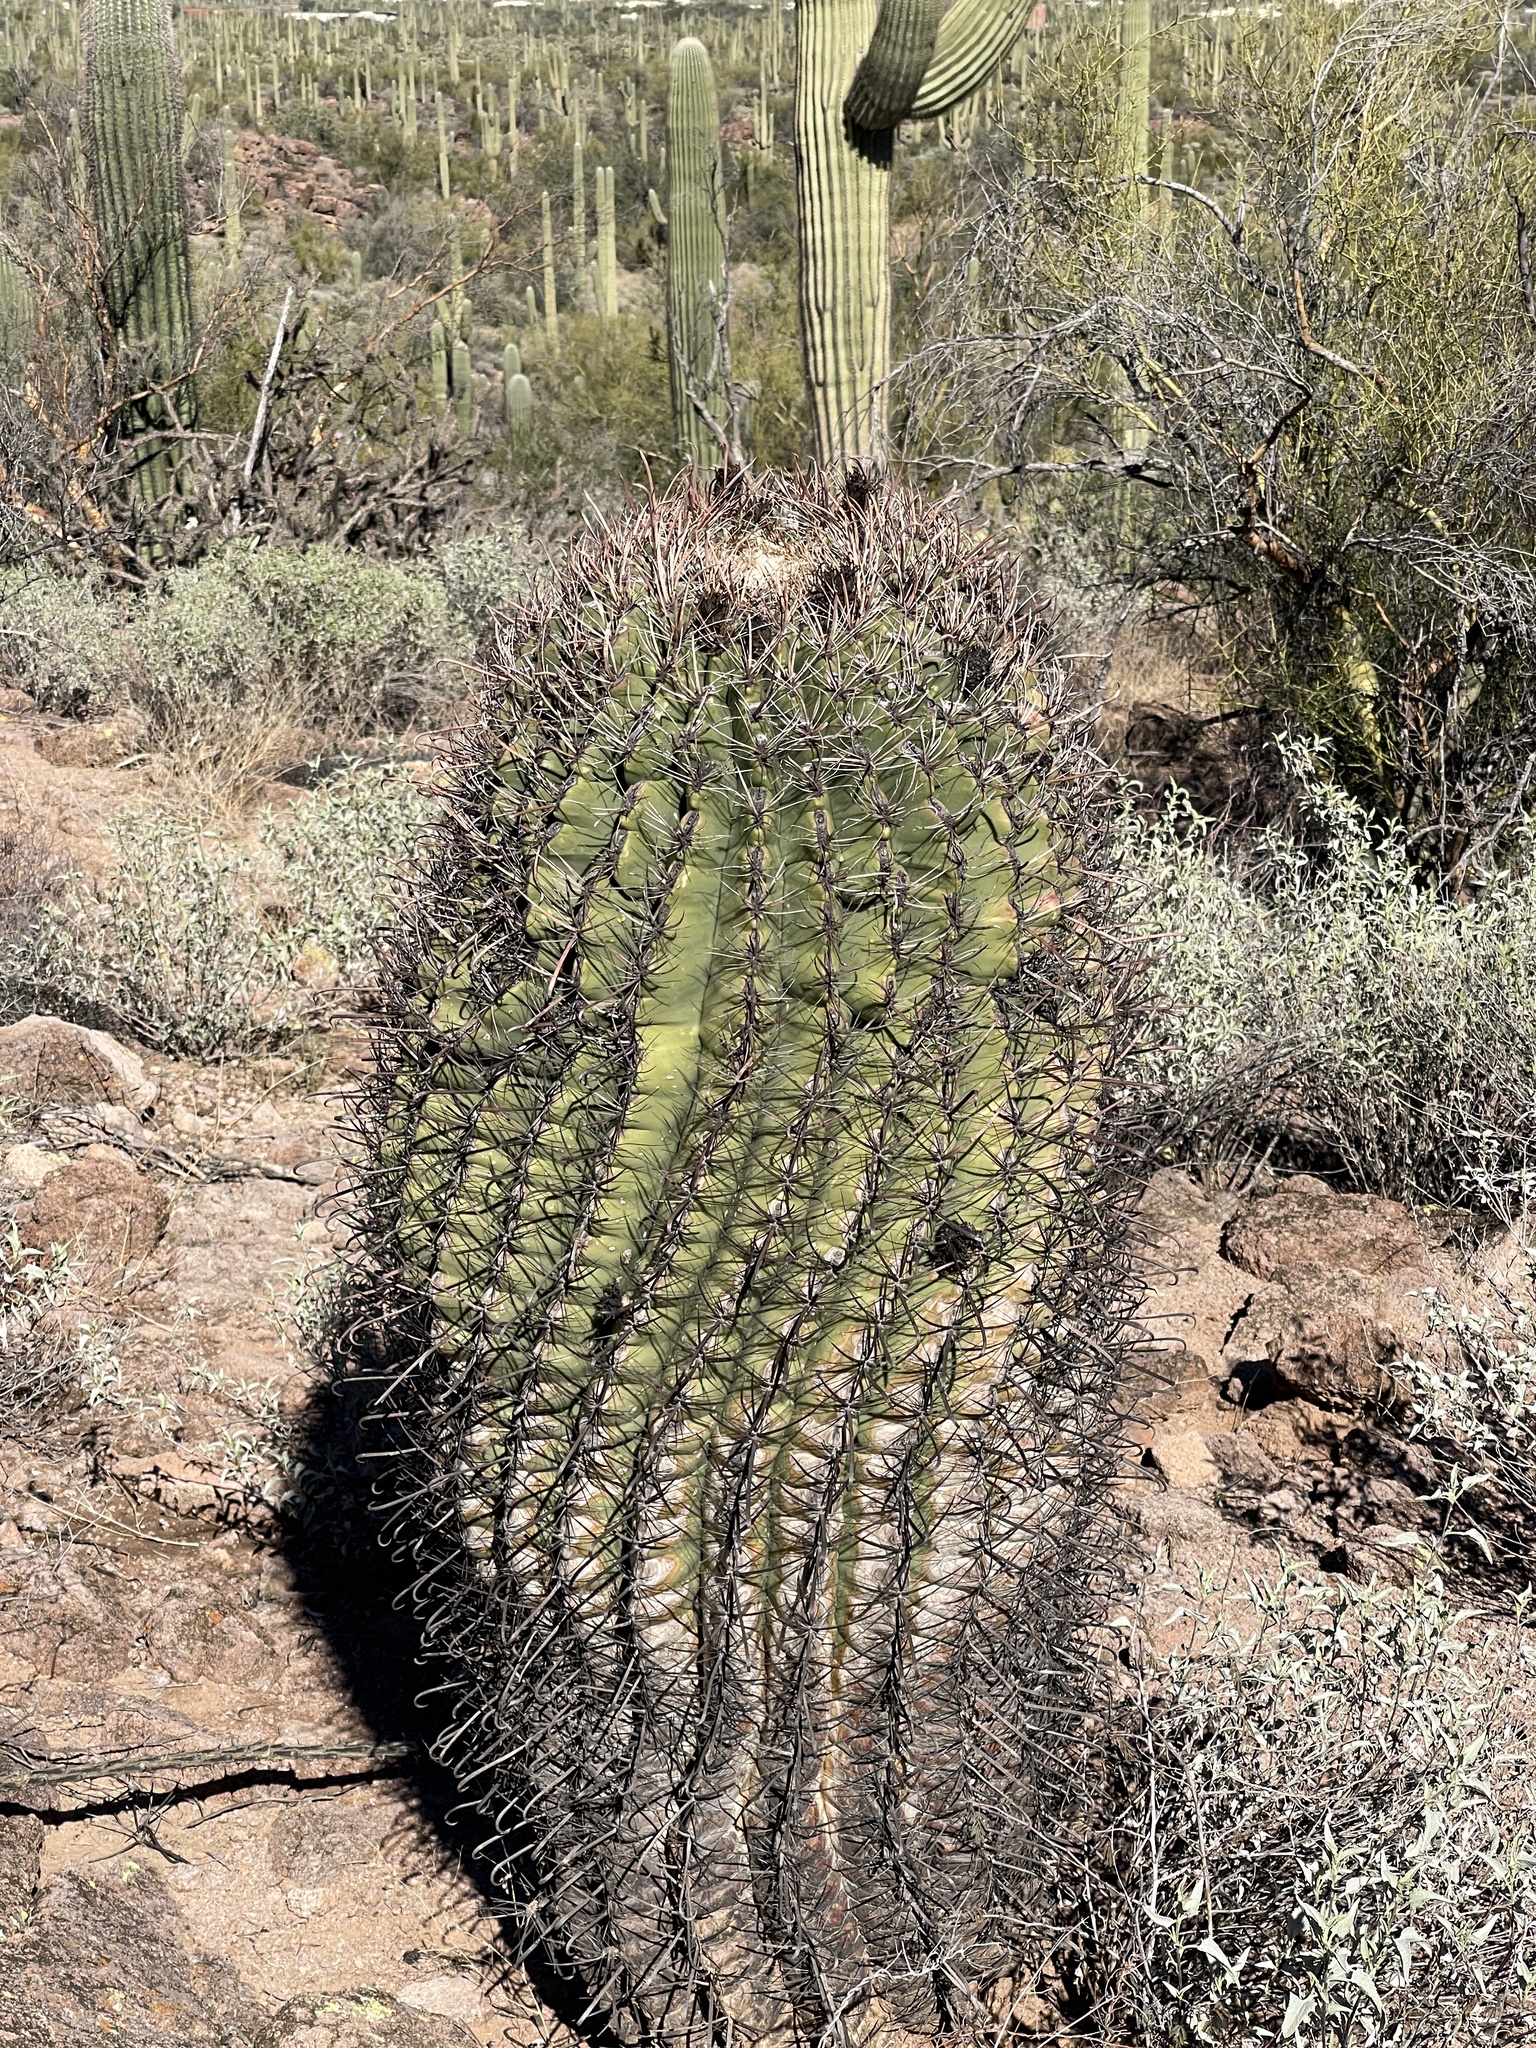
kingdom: Plantae
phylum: Tracheophyta
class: Magnoliopsida
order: Caryophyllales
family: Cactaceae
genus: Ferocactus
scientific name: Ferocactus wislizeni
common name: Candy barrel cactus
